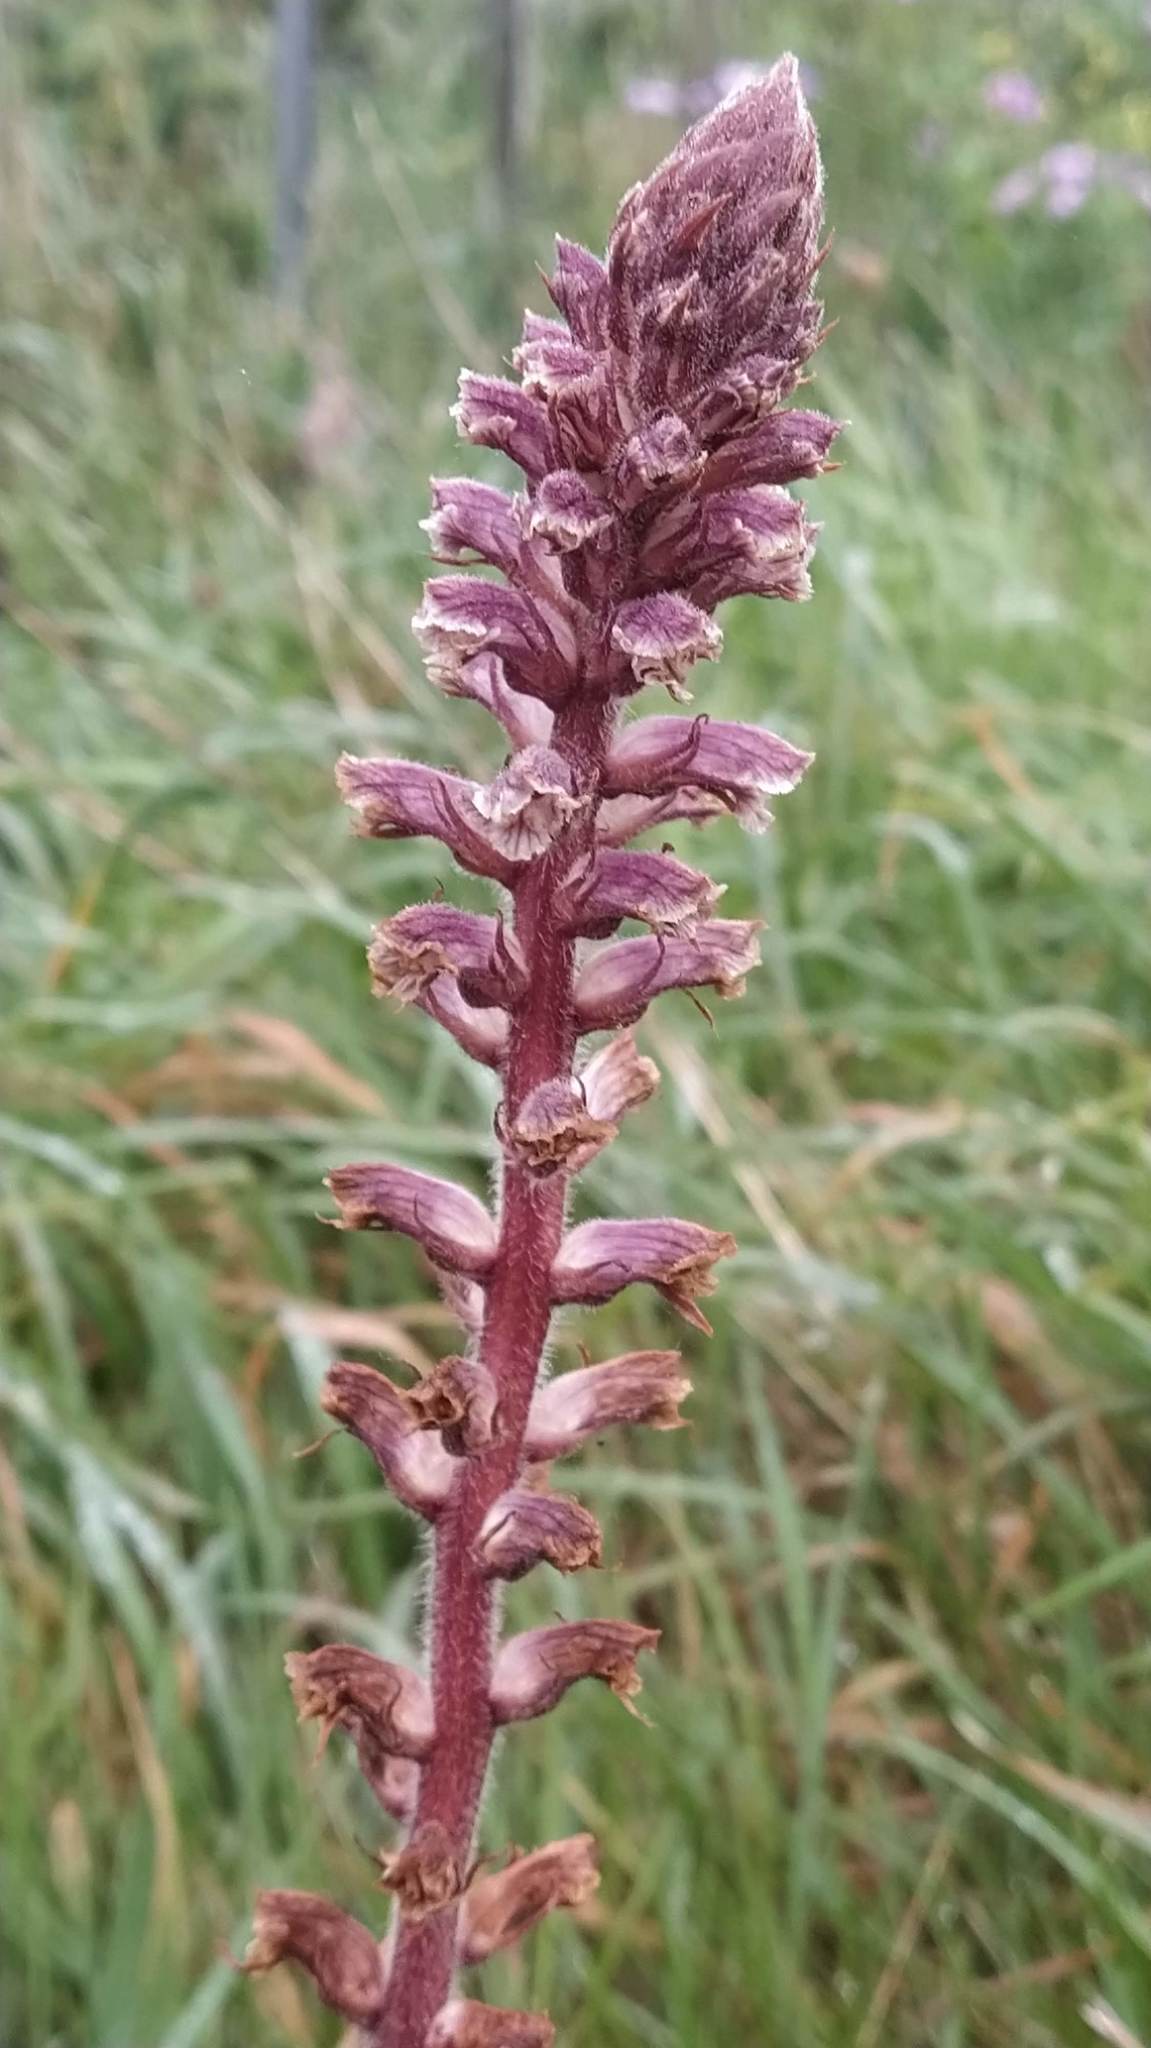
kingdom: Plantae
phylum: Tracheophyta
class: Magnoliopsida
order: Lamiales
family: Orobanchaceae
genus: Orobanche
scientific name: Orobanche minor
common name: Common broomrape
